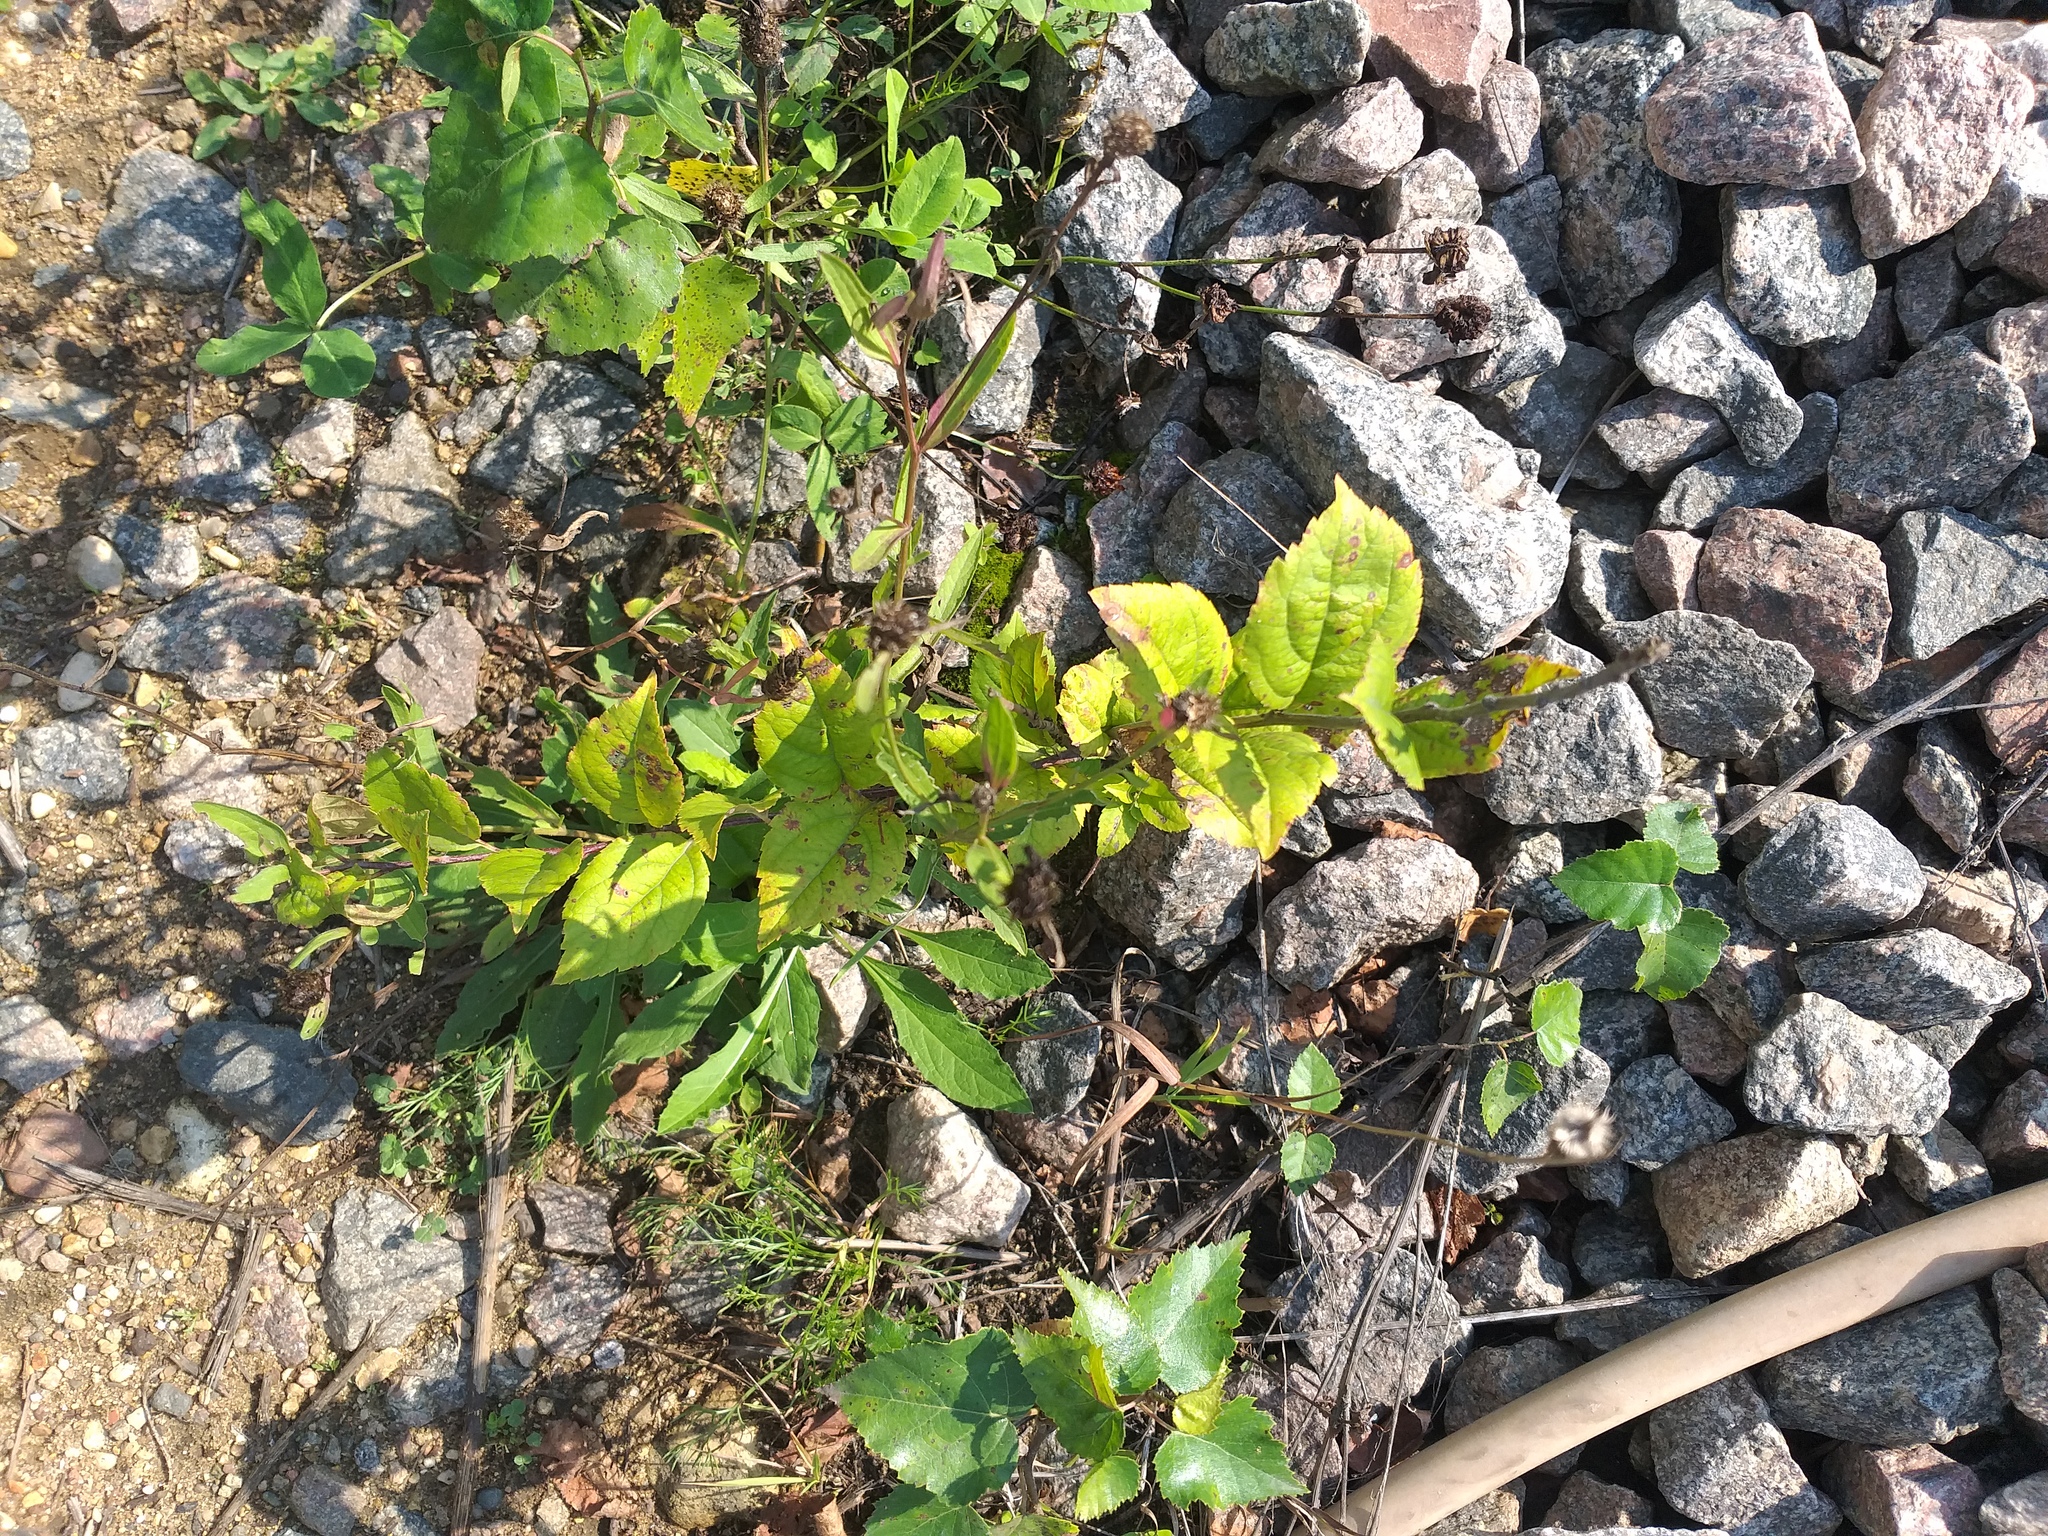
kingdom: Plantae
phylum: Tracheophyta
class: Magnoliopsida
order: Rosales
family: Rosaceae
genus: Malus
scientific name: Malus domestica
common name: Apple
